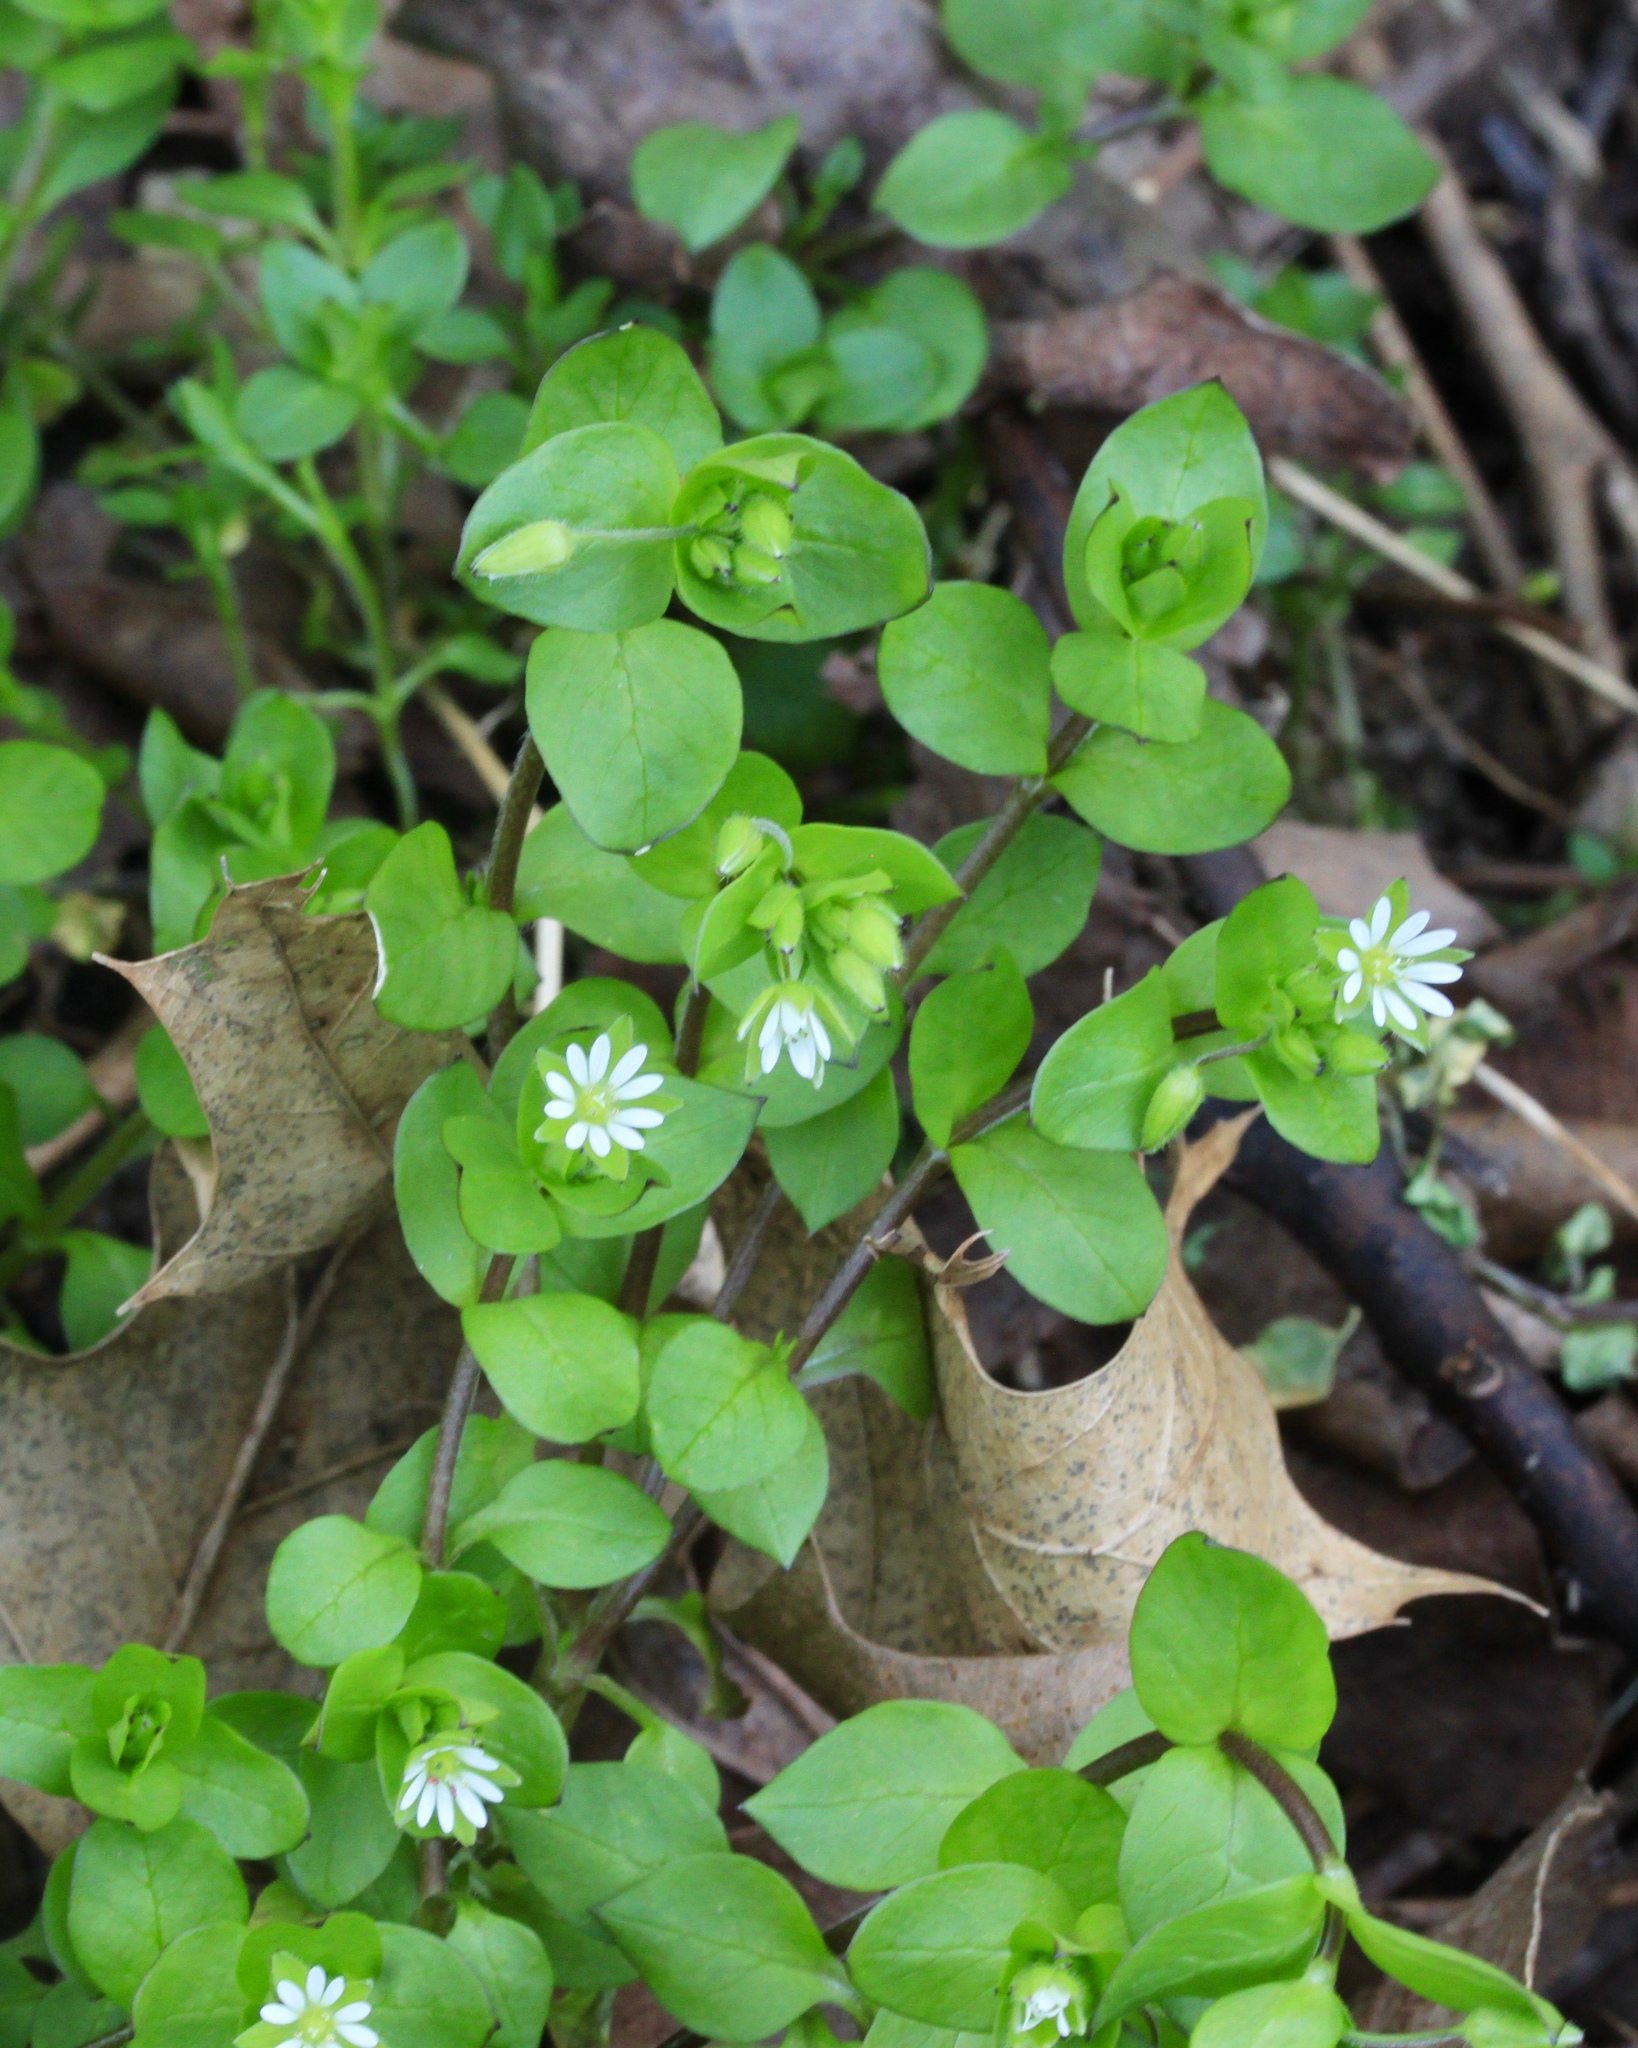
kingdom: Plantae
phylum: Tracheophyta
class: Magnoliopsida
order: Caryophyllales
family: Caryophyllaceae
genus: Stellaria
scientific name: Stellaria media
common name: Common chickweed
